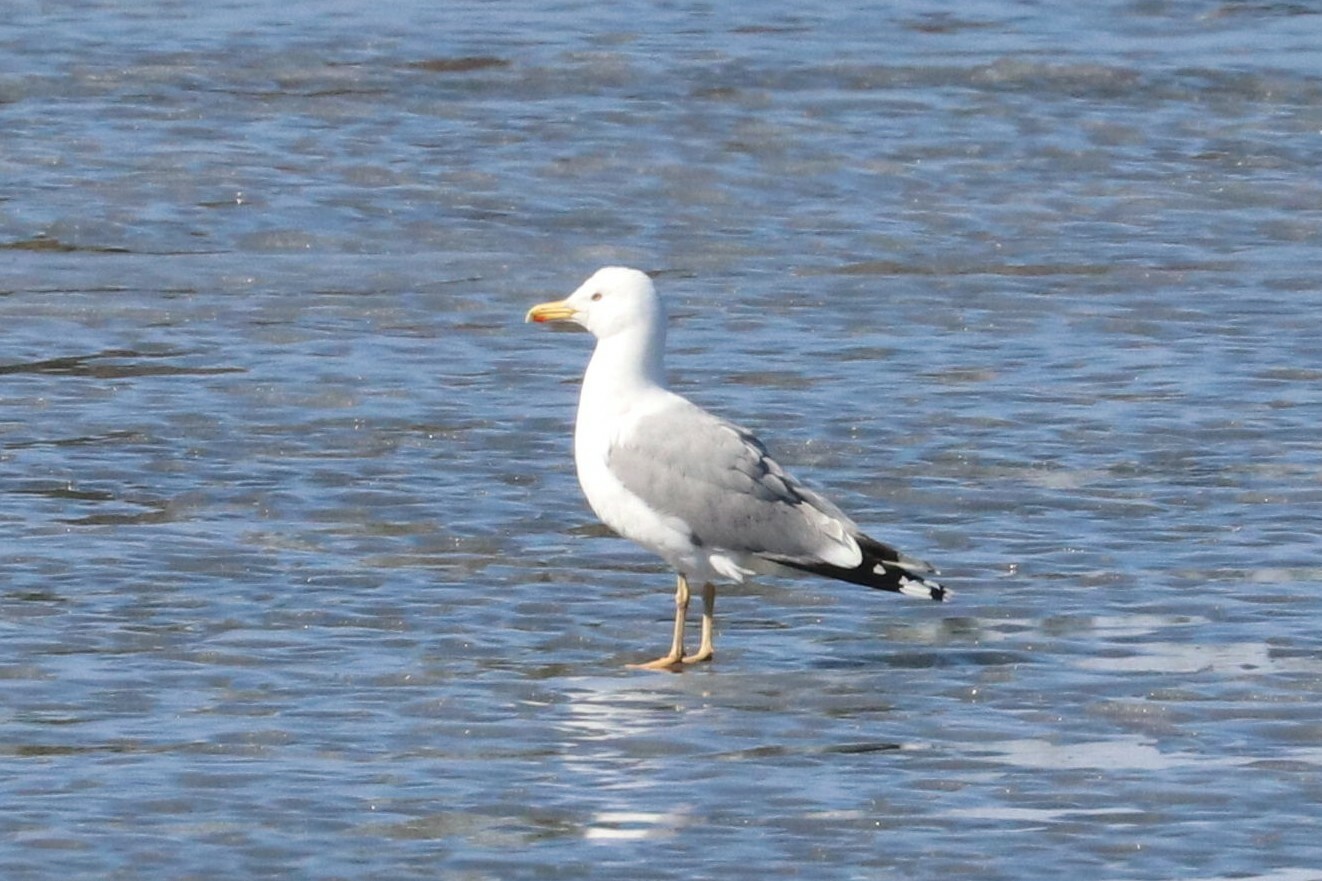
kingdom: Animalia
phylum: Chordata
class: Aves
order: Charadriiformes
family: Laridae
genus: Larus
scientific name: Larus cachinnans
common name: Caspian gull
